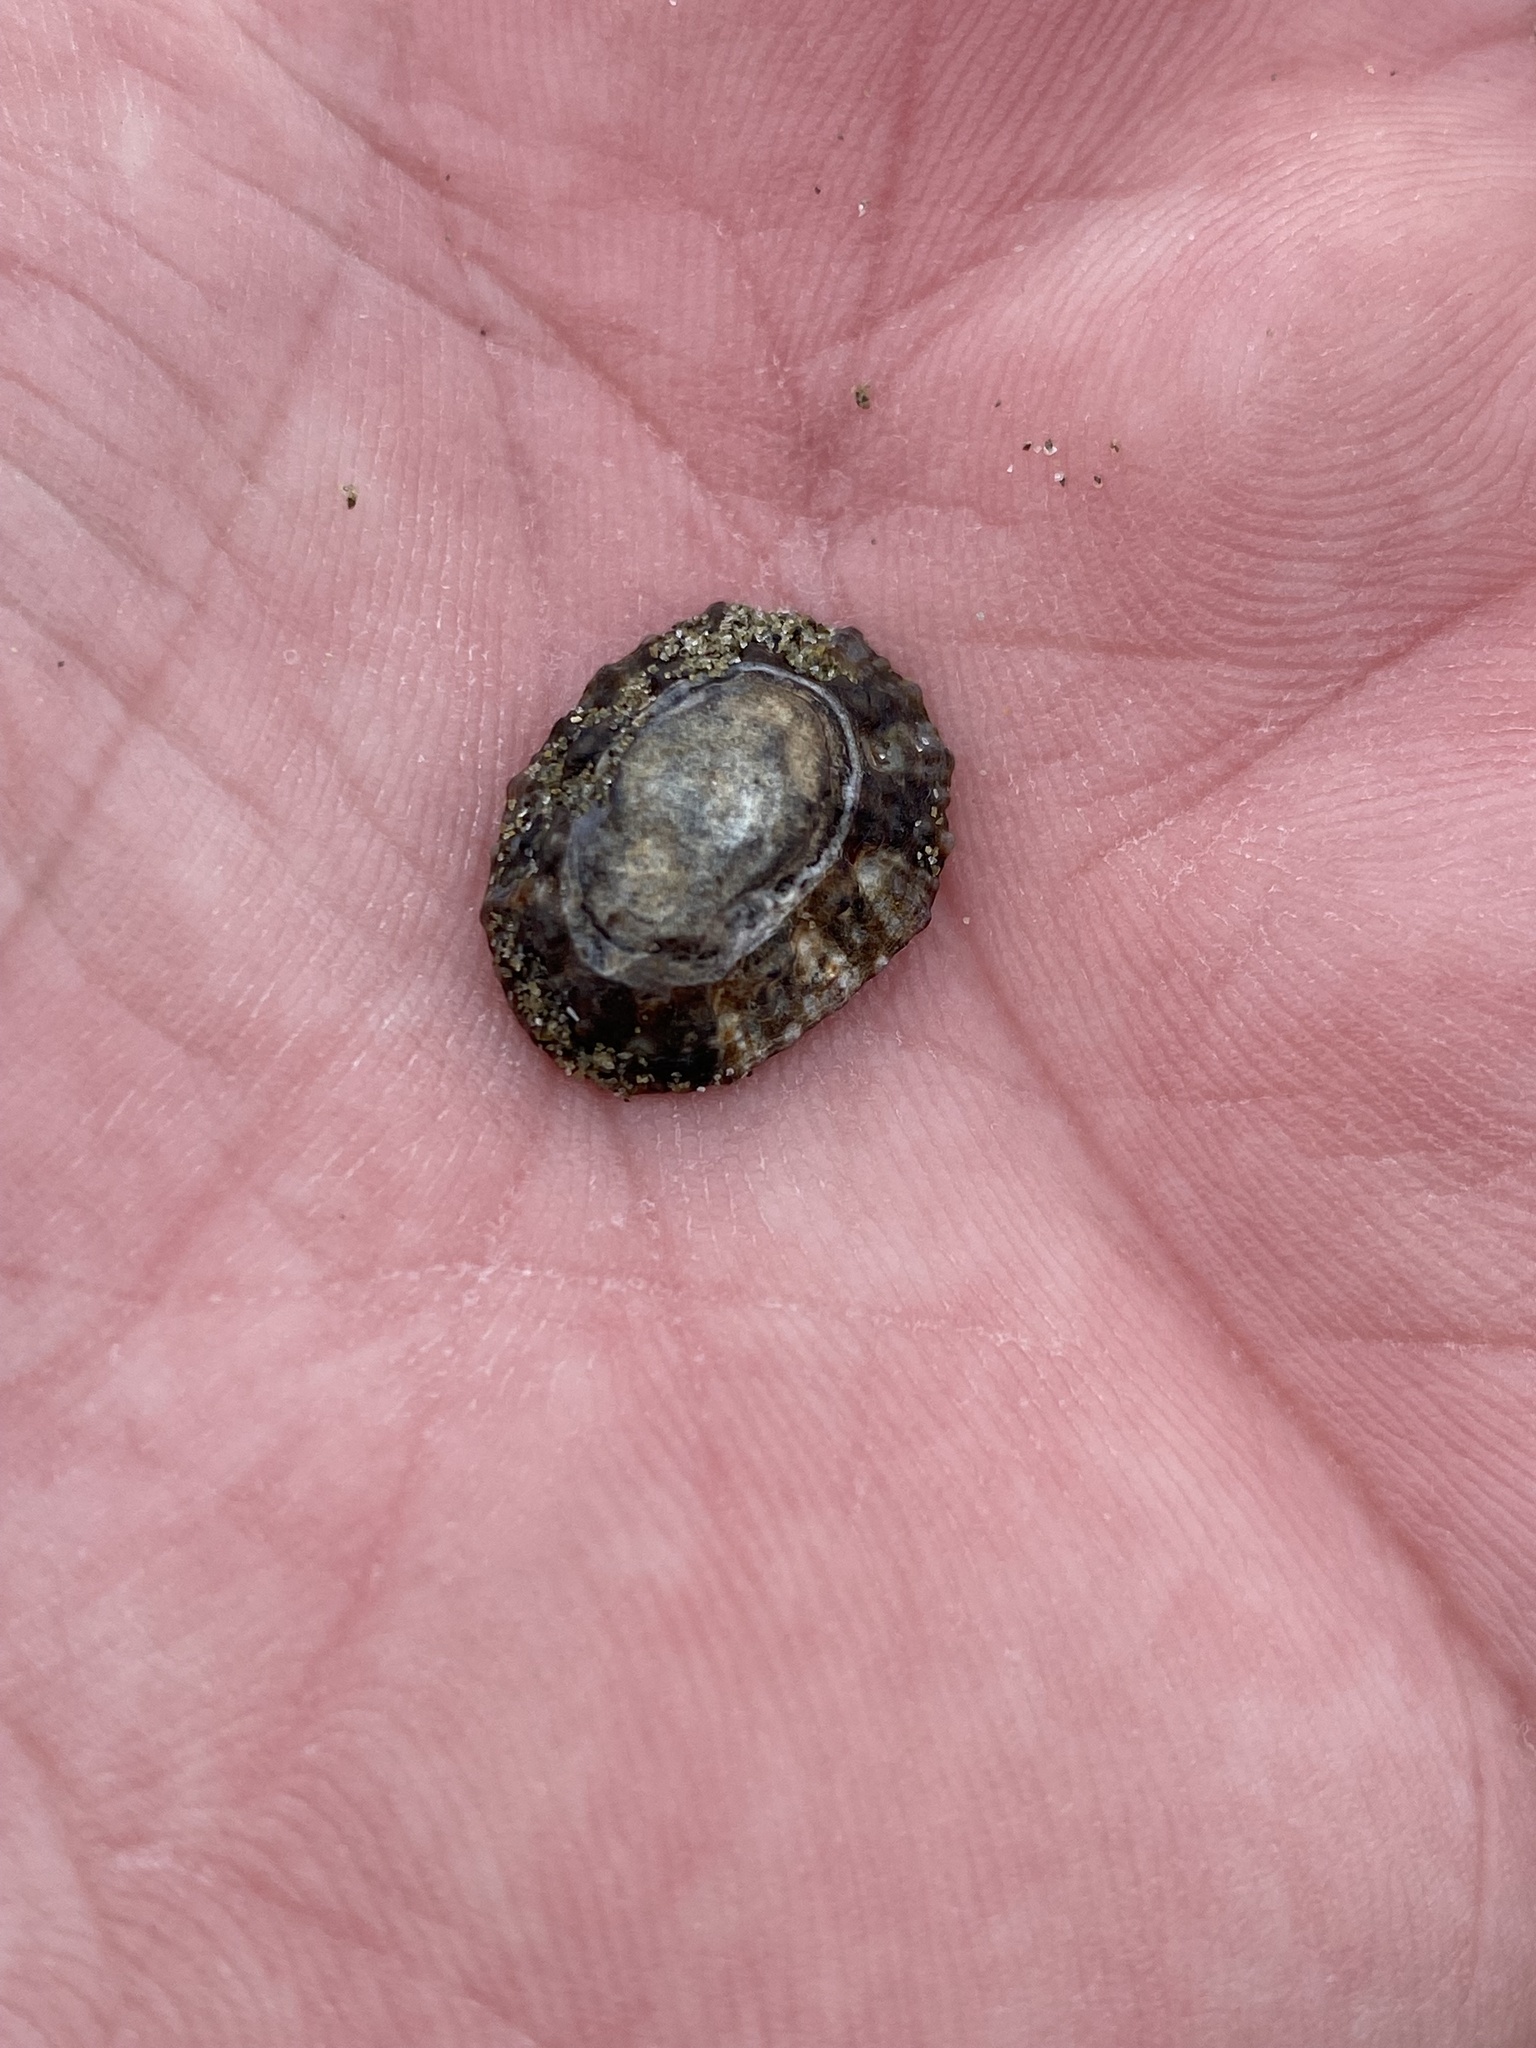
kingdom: Animalia
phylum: Mollusca
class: Gastropoda
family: Nacellidae
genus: Cellana
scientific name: Cellana ornata
